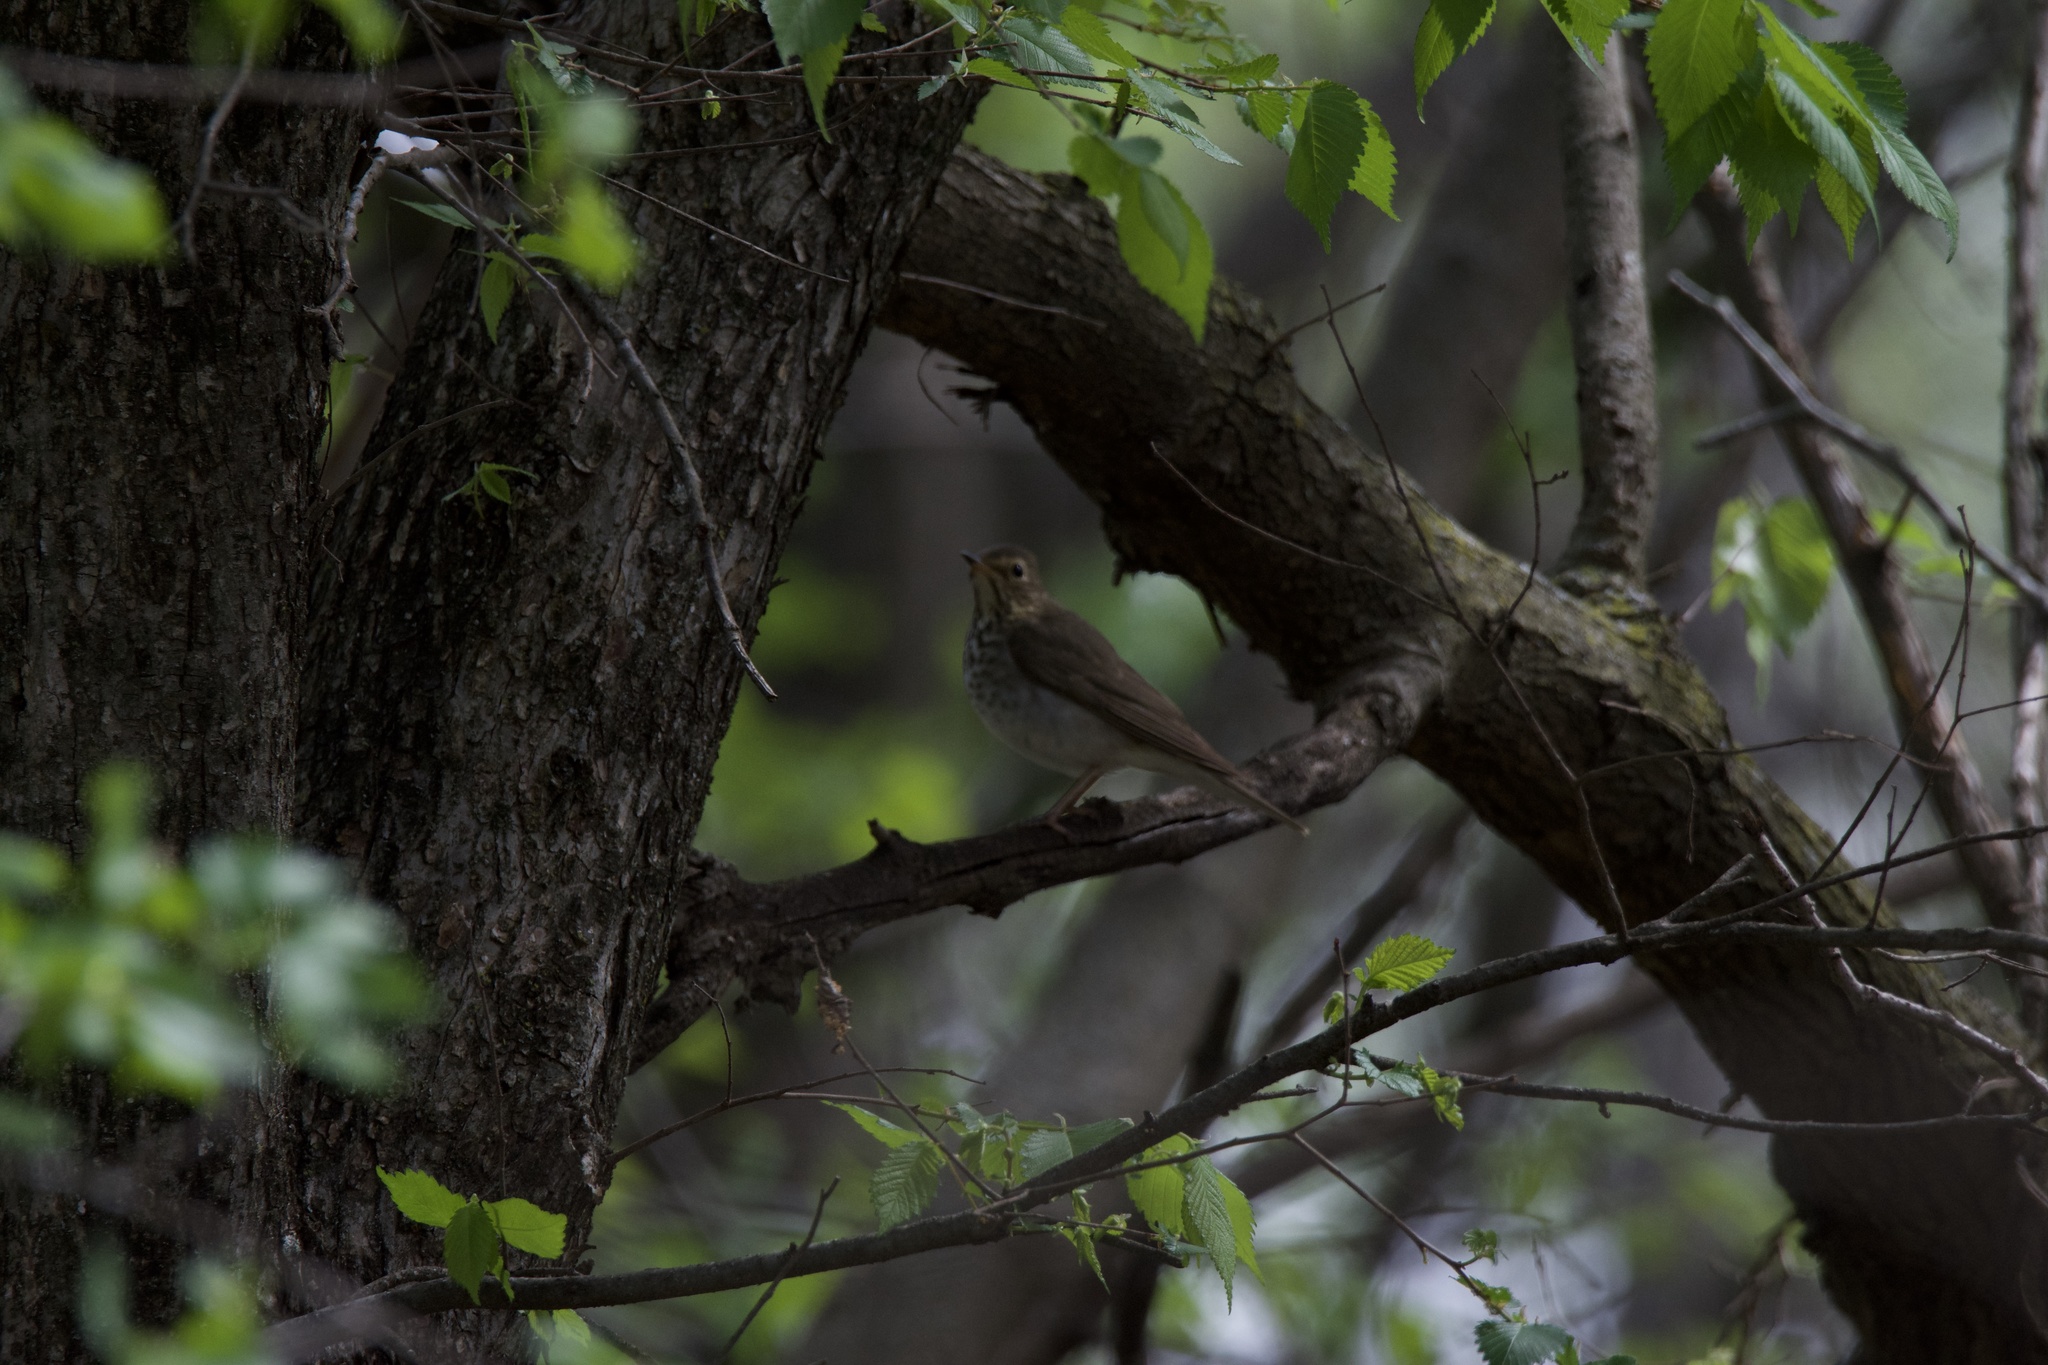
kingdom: Animalia
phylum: Chordata
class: Aves
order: Passeriformes
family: Turdidae
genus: Catharus
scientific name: Catharus ustulatus
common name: Swainson's thrush
